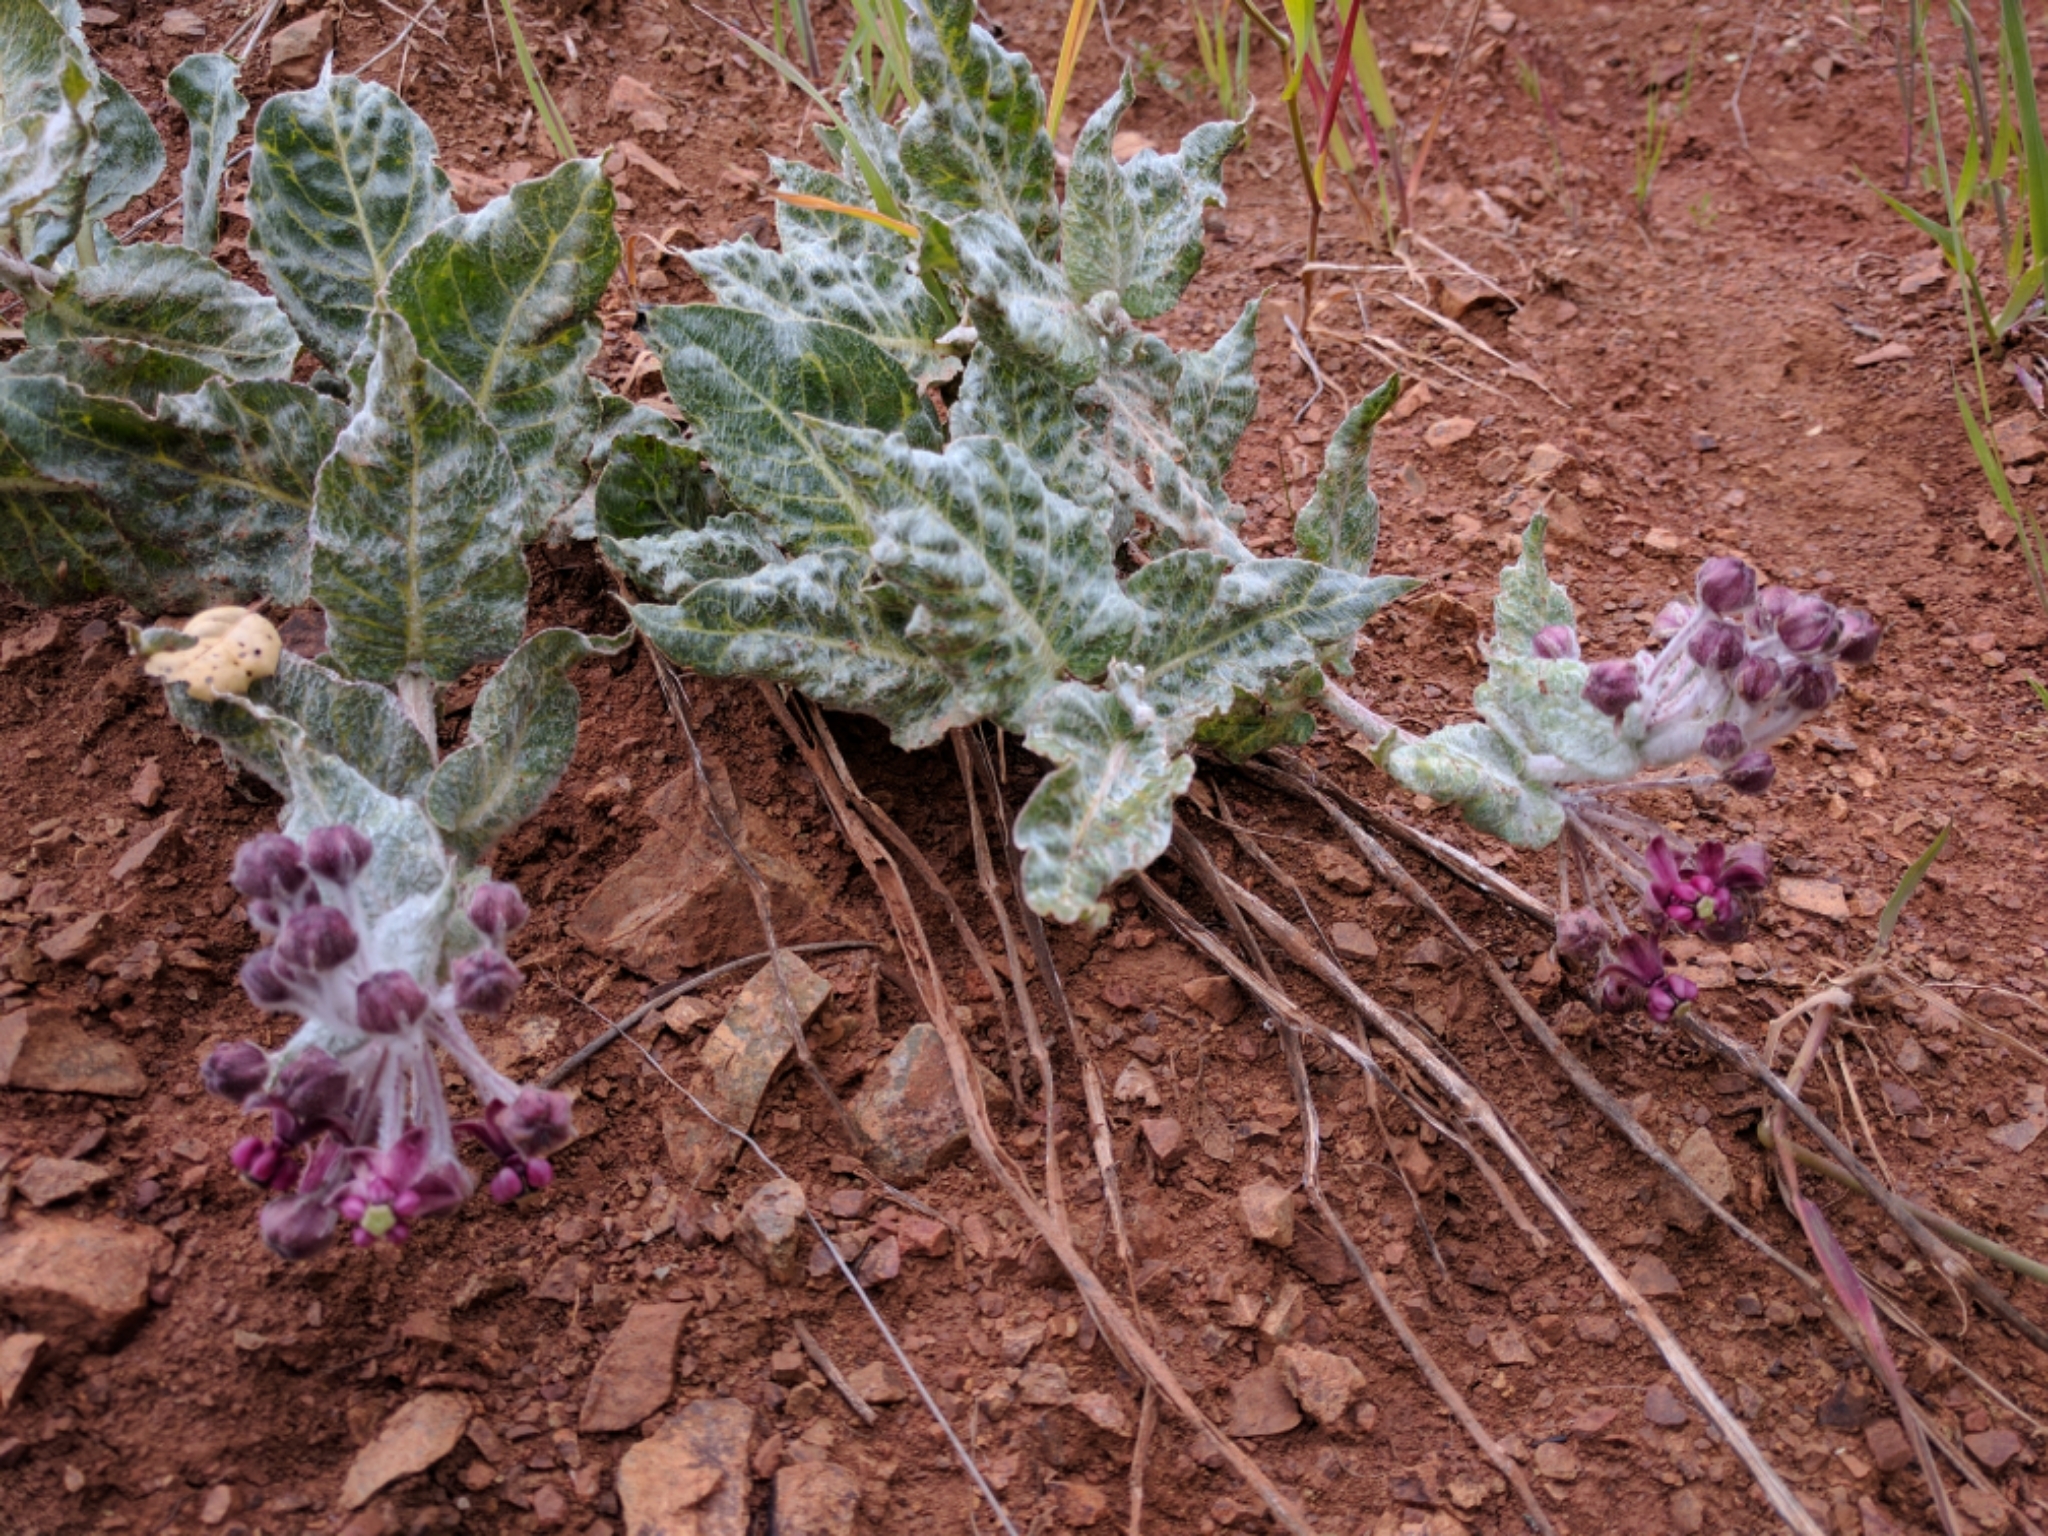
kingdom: Plantae
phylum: Tracheophyta
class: Magnoliopsida
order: Gentianales
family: Apocynaceae
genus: Asclepias
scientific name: Asclepias californica
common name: California milkweed
